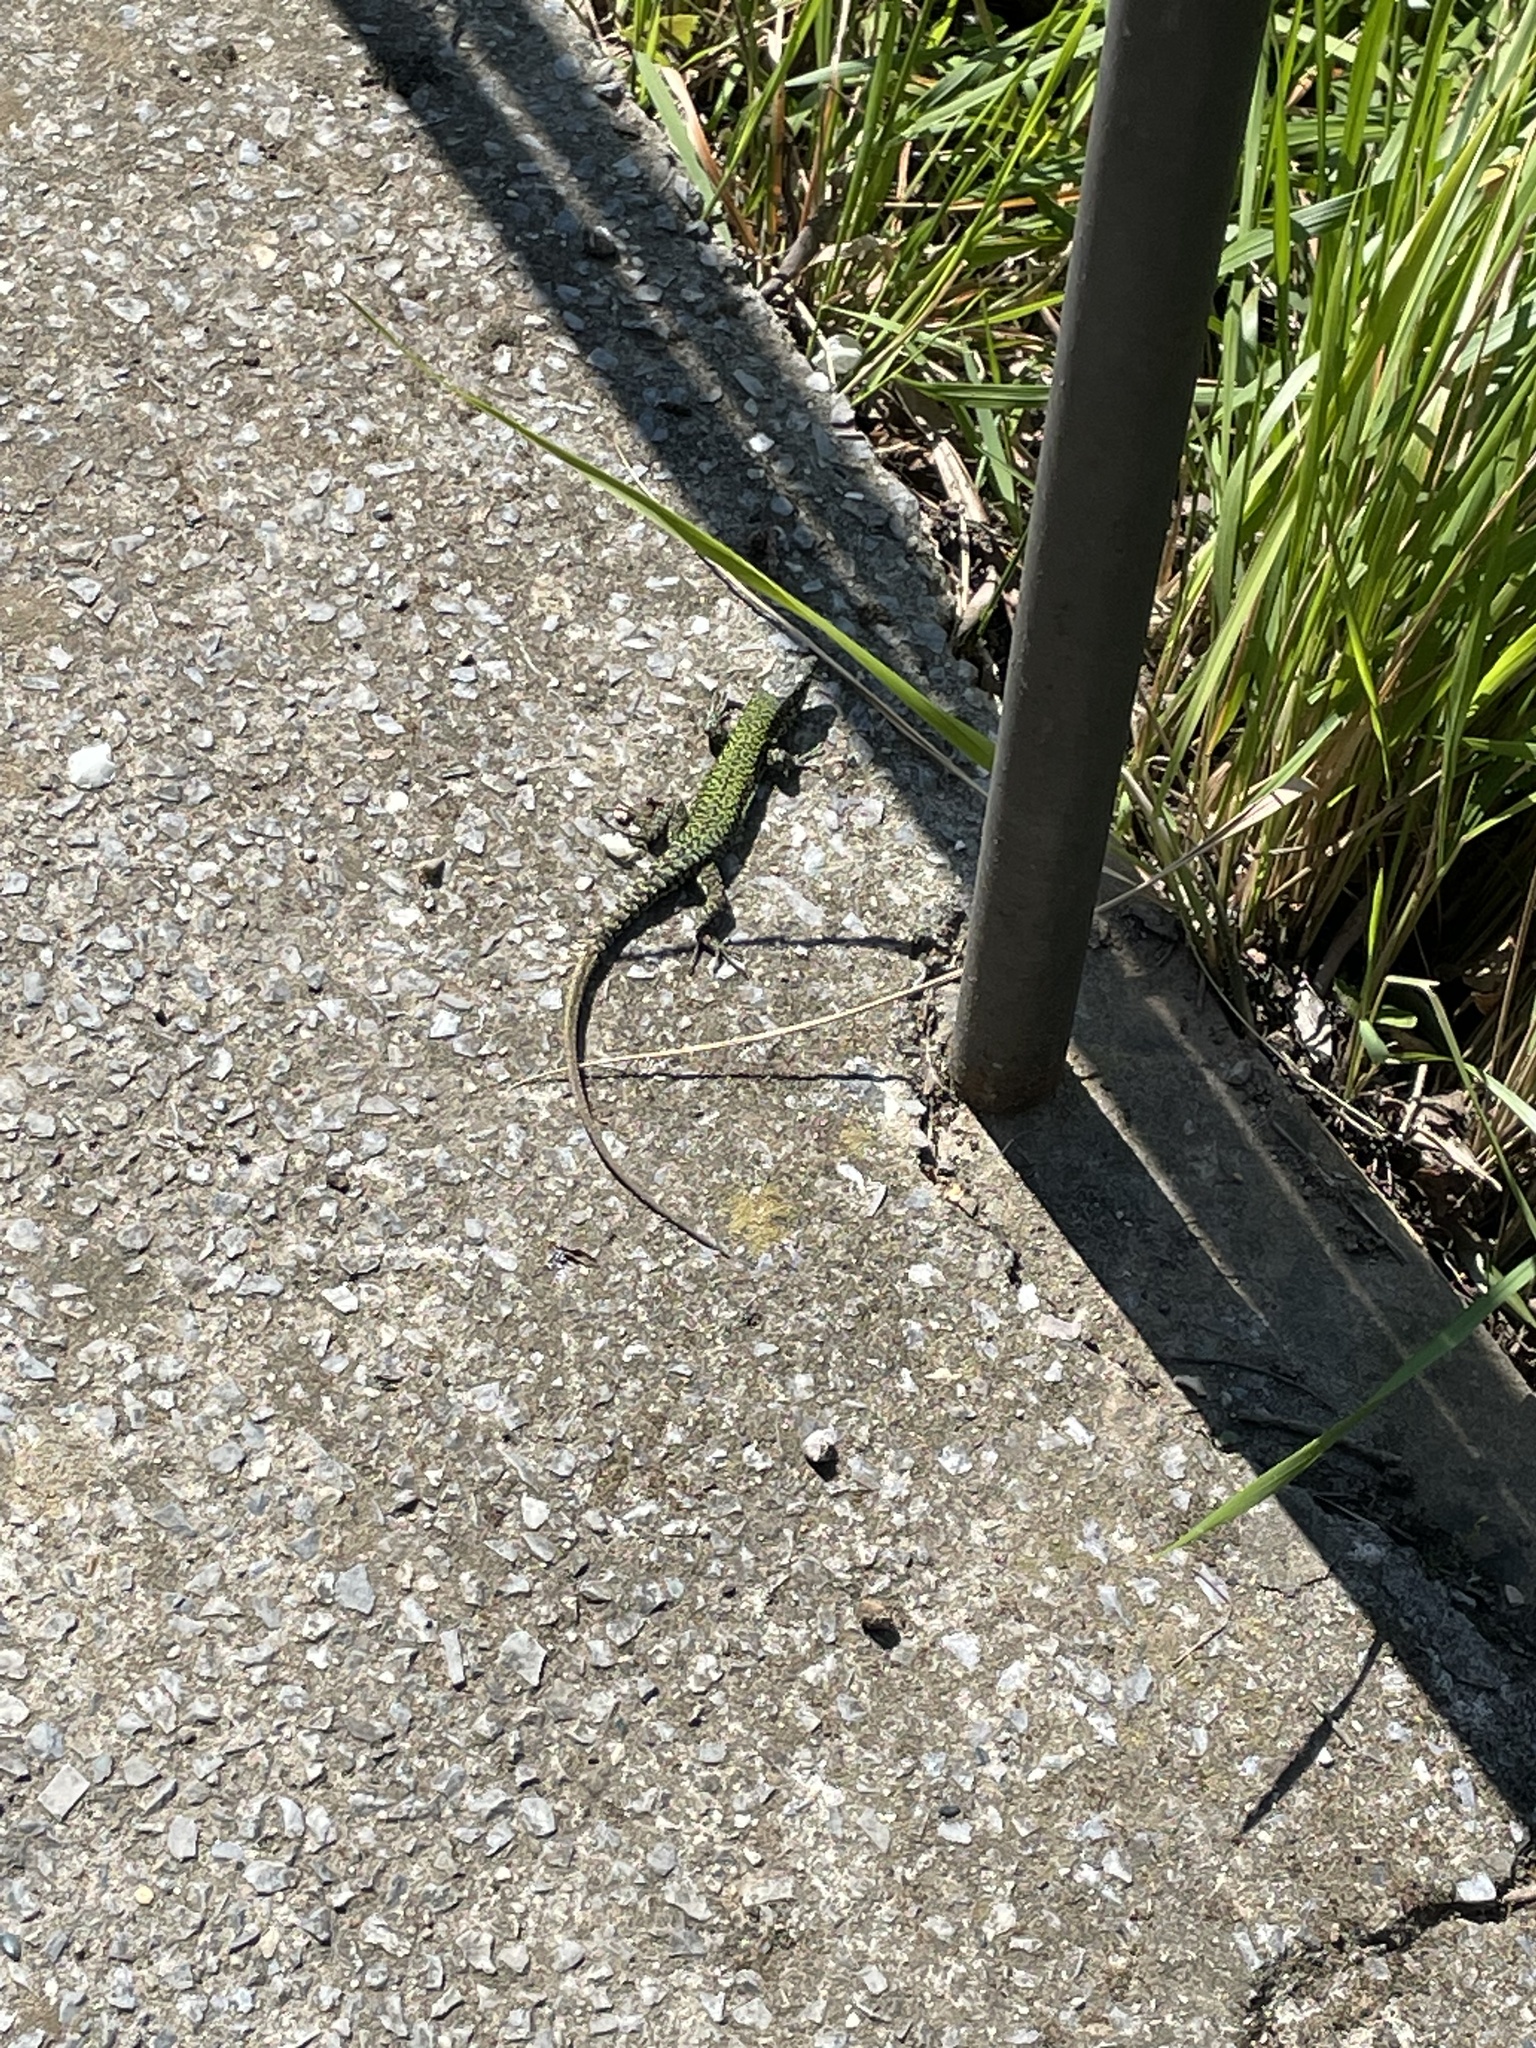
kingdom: Animalia
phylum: Chordata
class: Squamata
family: Lacertidae
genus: Podarcis
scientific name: Podarcis muralis
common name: Common wall lizard
